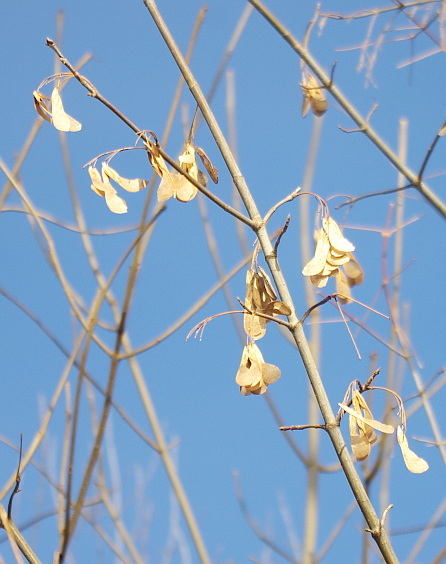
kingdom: Plantae
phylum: Tracheophyta
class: Magnoliopsida
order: Sapindales
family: Sapindaceae
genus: Acer
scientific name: Acer negundo
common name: Ashleaf maple
